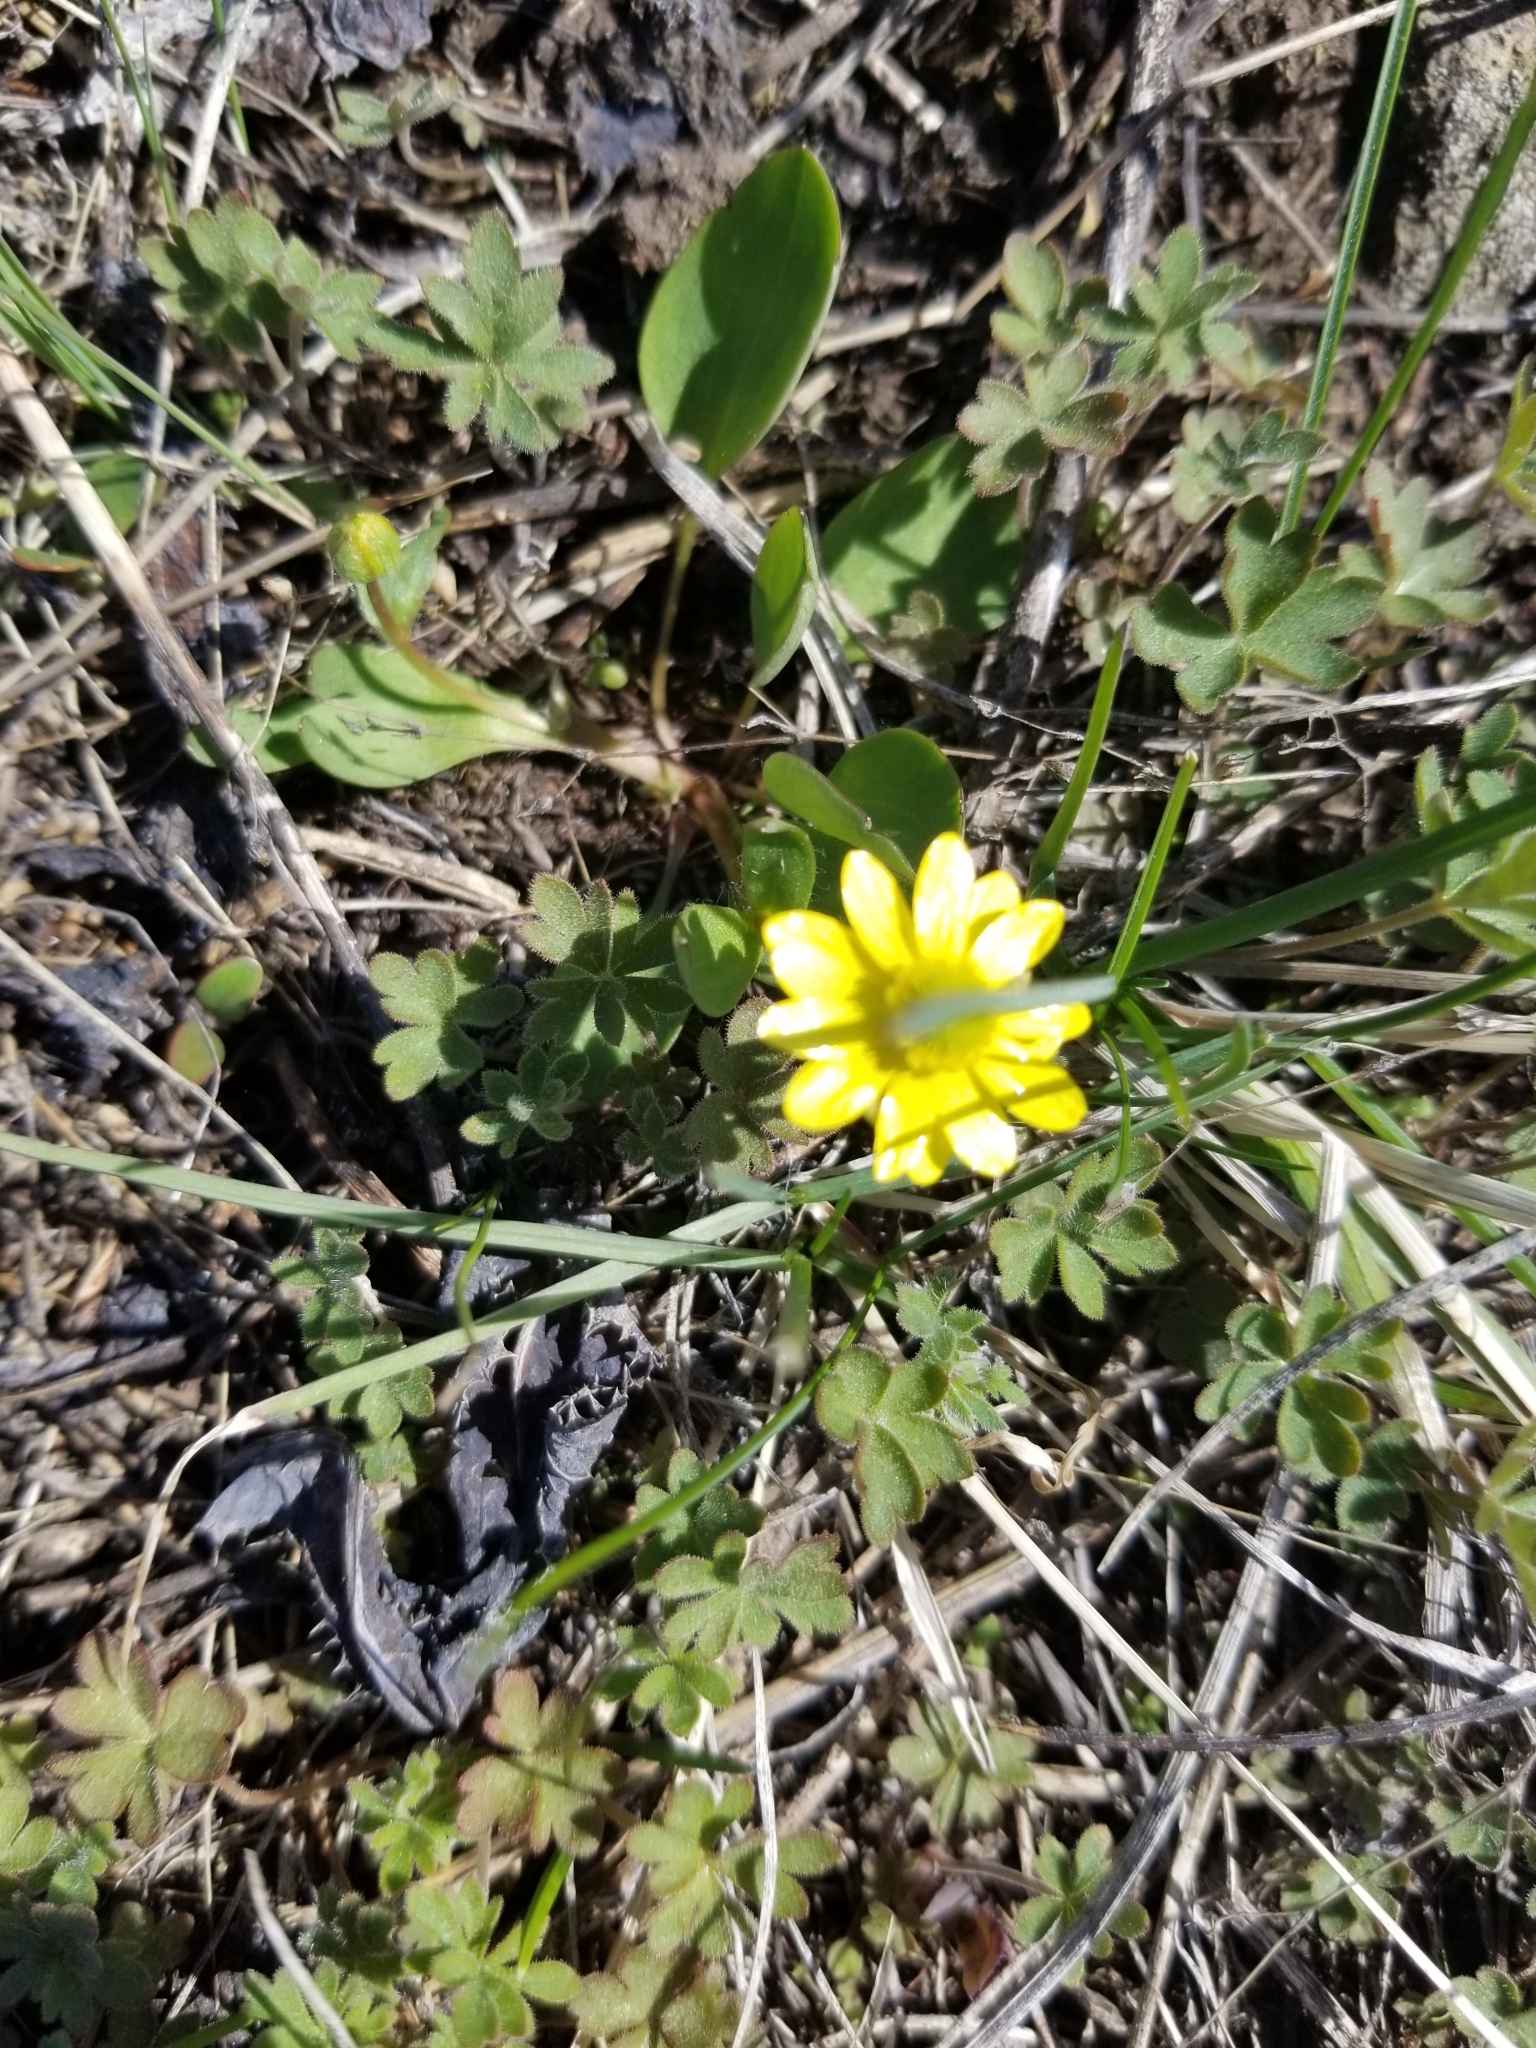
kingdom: Plantae
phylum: Tracheophyta
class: Magnoliopsida
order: Ranunculales
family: Ranunculaceae
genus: Ranunculus
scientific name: Ranunculus glaberrimus
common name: Sagebrush buttercup
